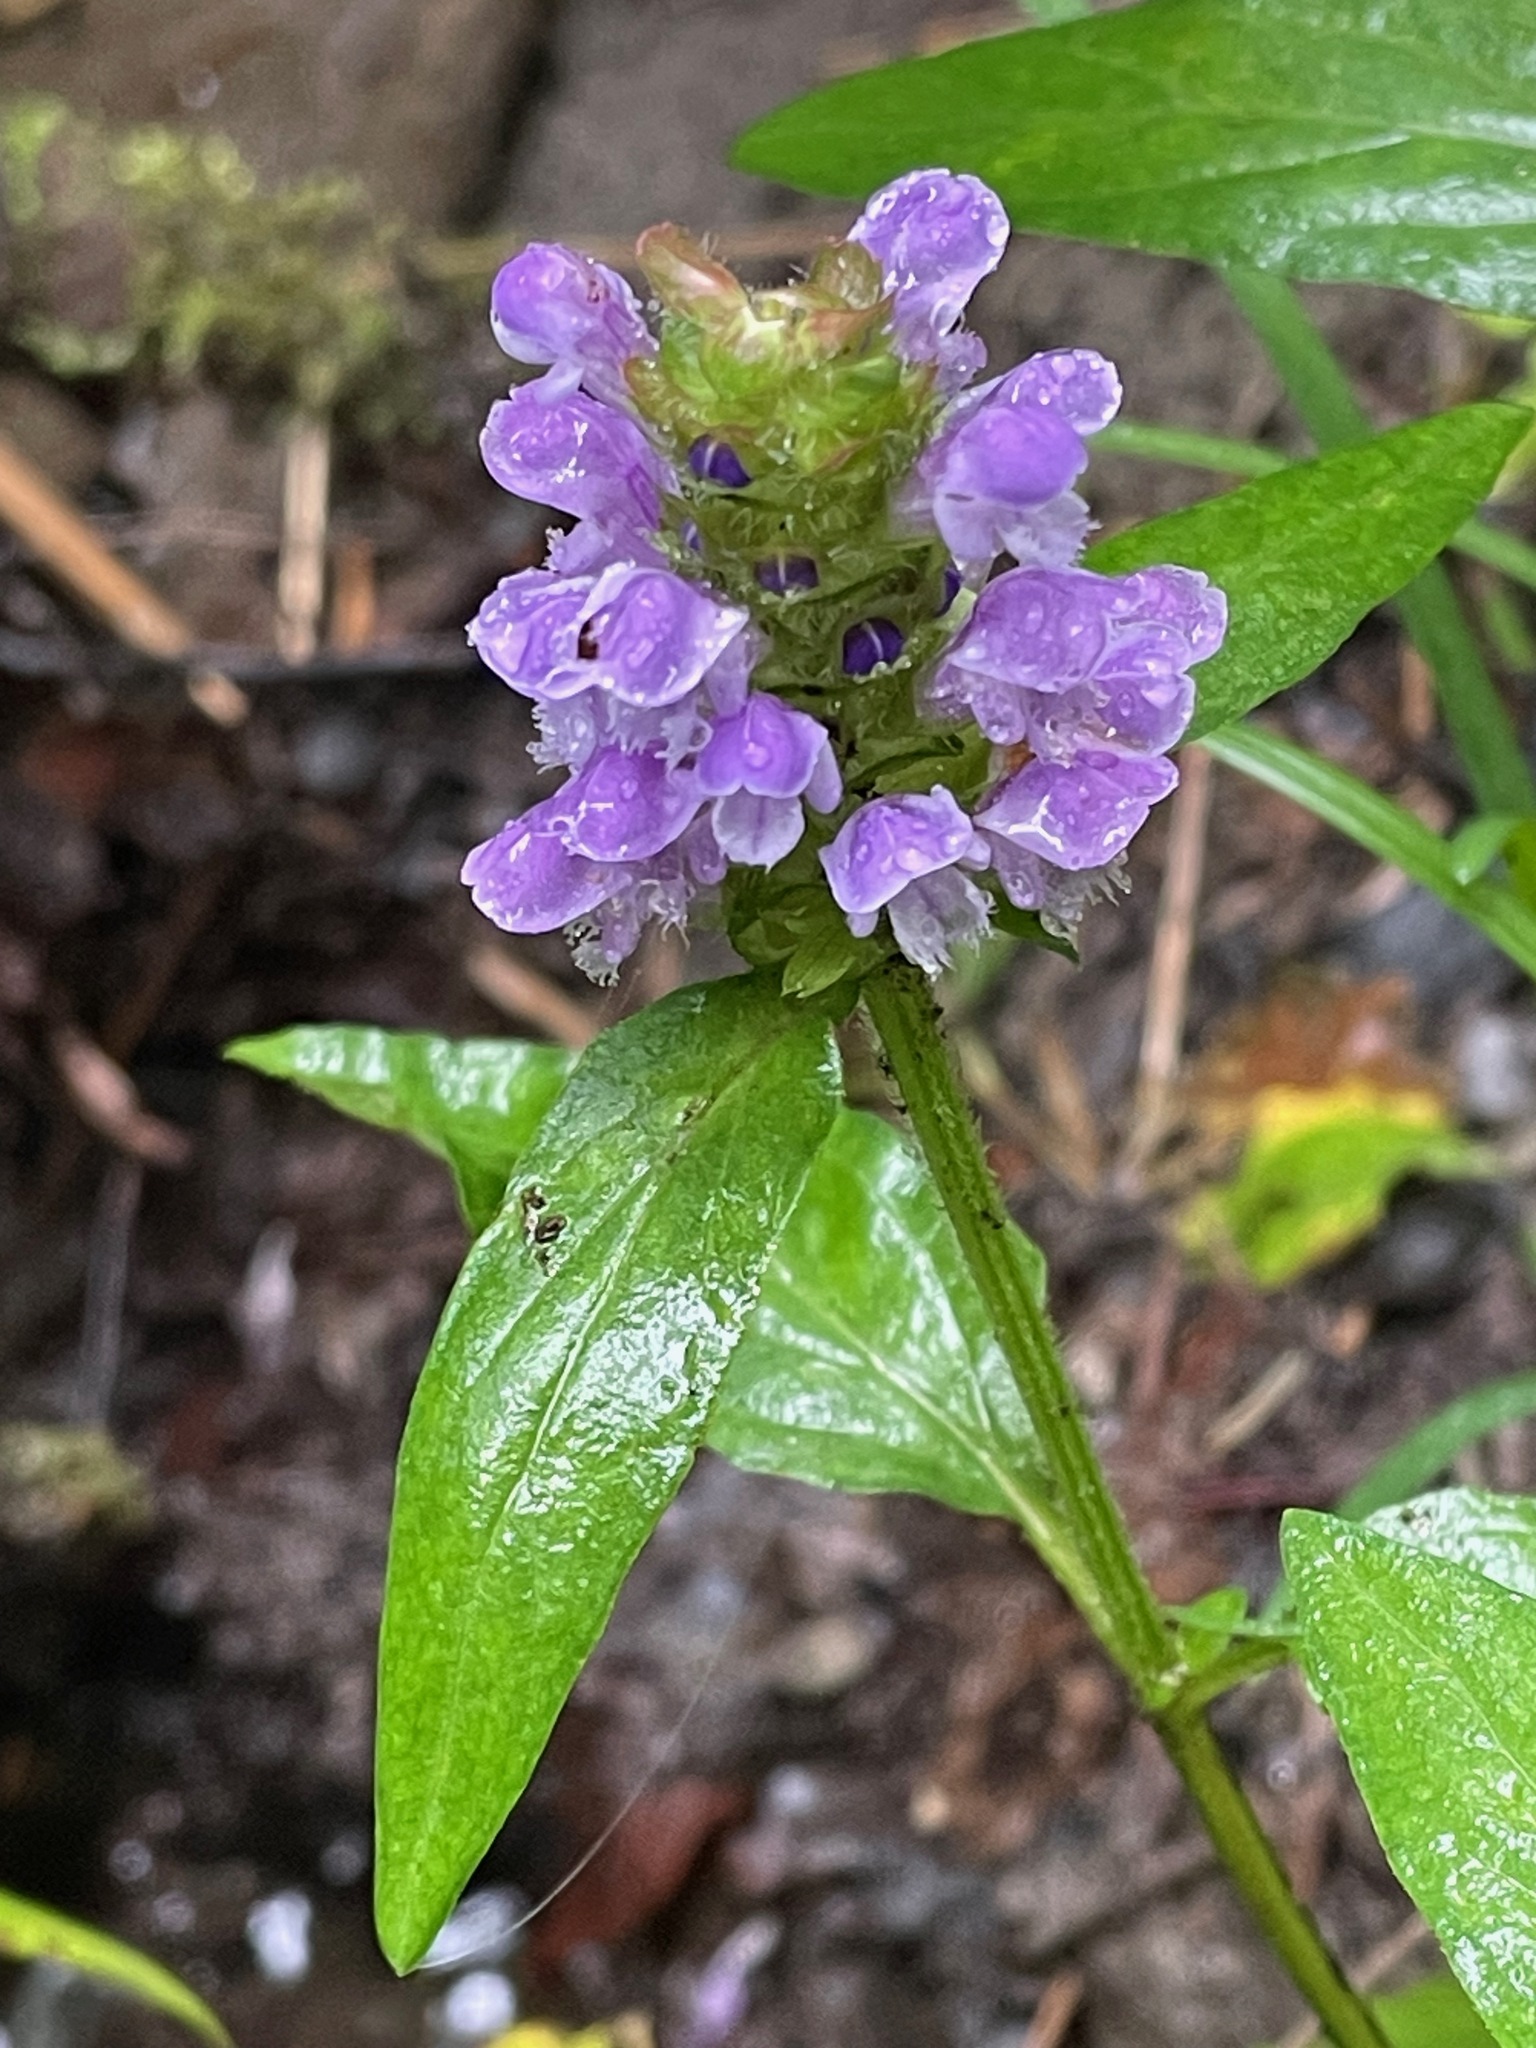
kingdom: Plantae
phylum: Tracheophyta
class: Magnoliopsida
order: Lamiales
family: Lamiaceae
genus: Prunella
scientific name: Prunella vulgaris
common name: Heal-all
